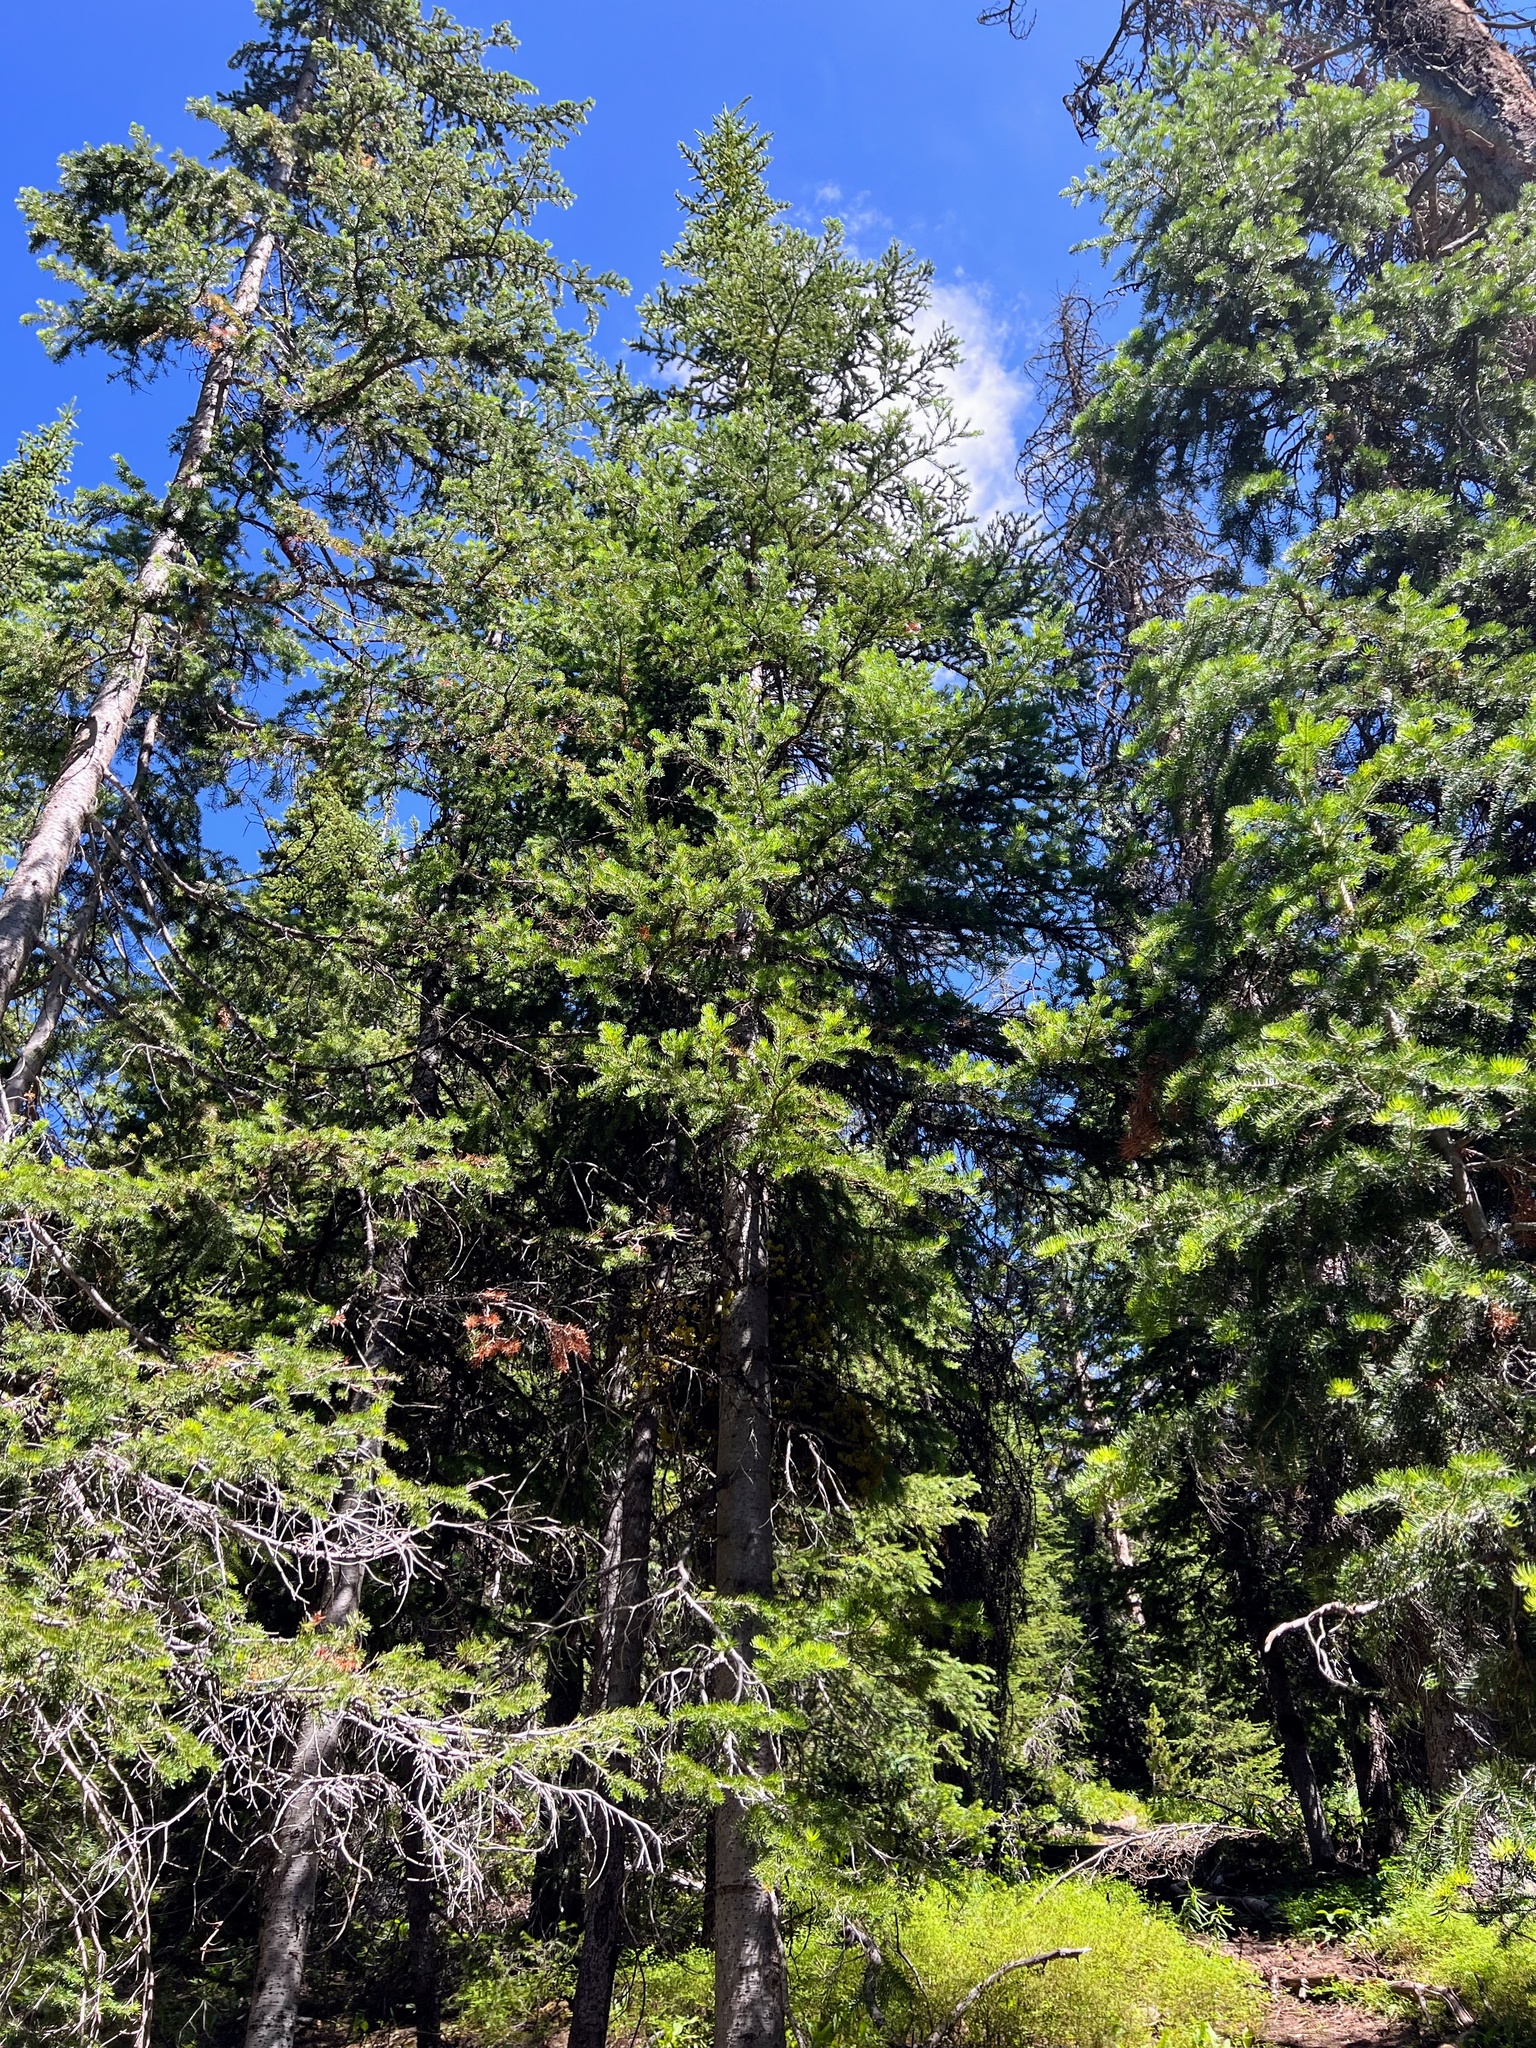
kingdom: Plantae
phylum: Tracheophyta
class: Pinopsida
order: Pinales
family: Pinaceae
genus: Abies
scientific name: Abies lasiocarpa
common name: Subalpine fir
